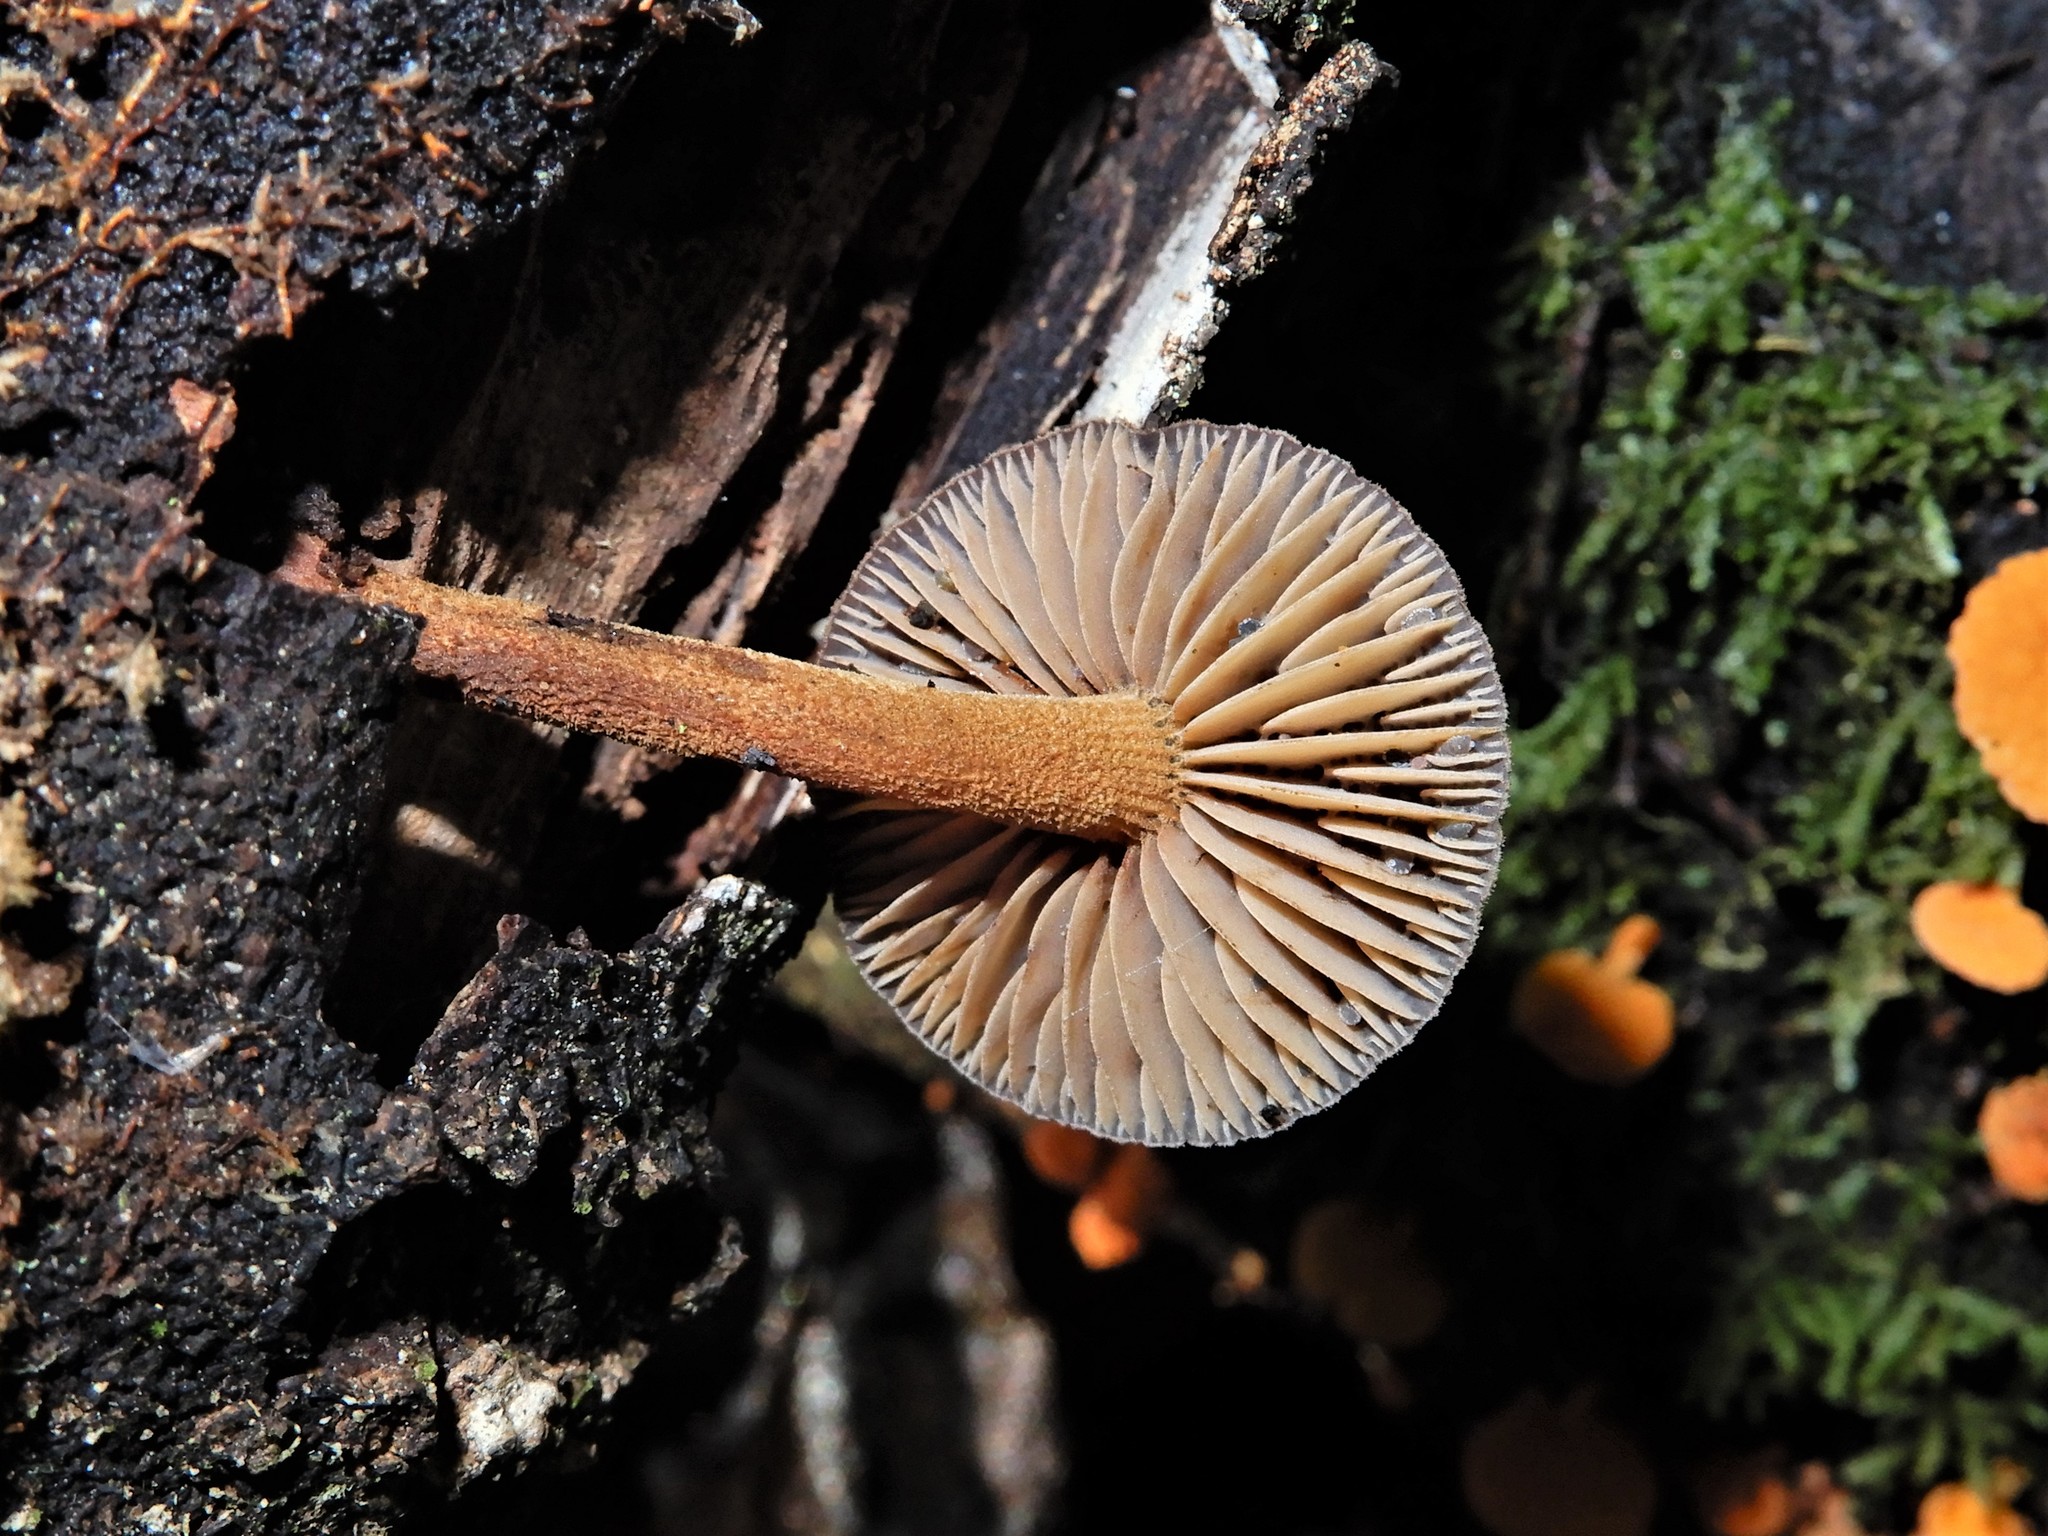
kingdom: Fungi
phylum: Basidiomycota
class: Agaricomycetes
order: Agaricales
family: Mycenaceae
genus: Heimiomyces
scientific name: Heimiomyces atrofulvus
